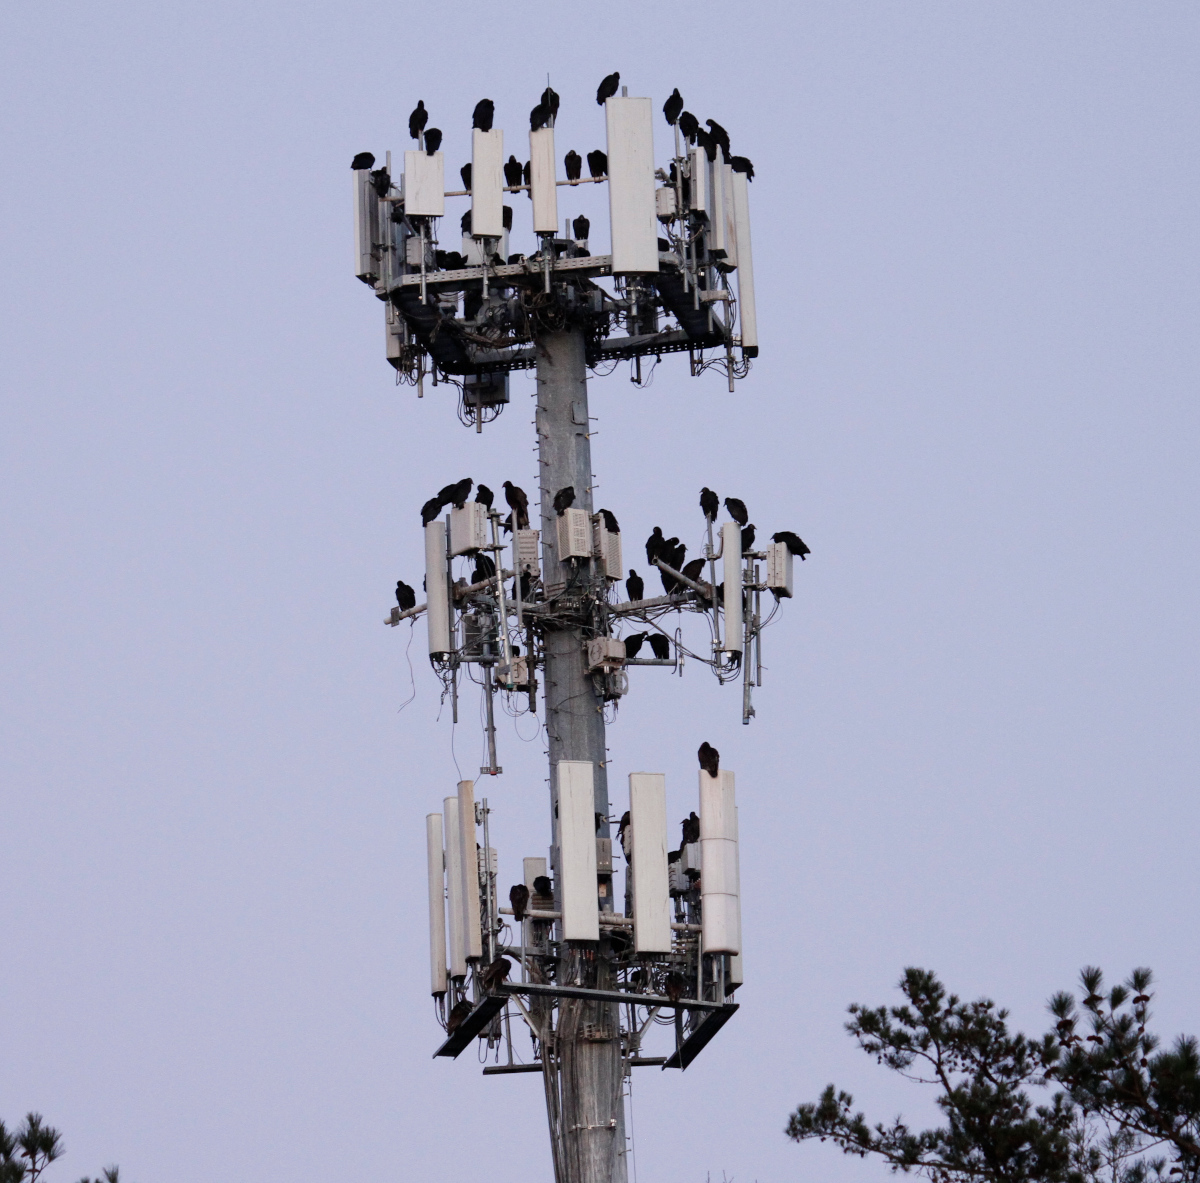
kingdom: Animalia
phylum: Chordata
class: Aves
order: Accipitriformes
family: Cathartidae
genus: Coragyps
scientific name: Coragyps atratus
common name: Black vulture
